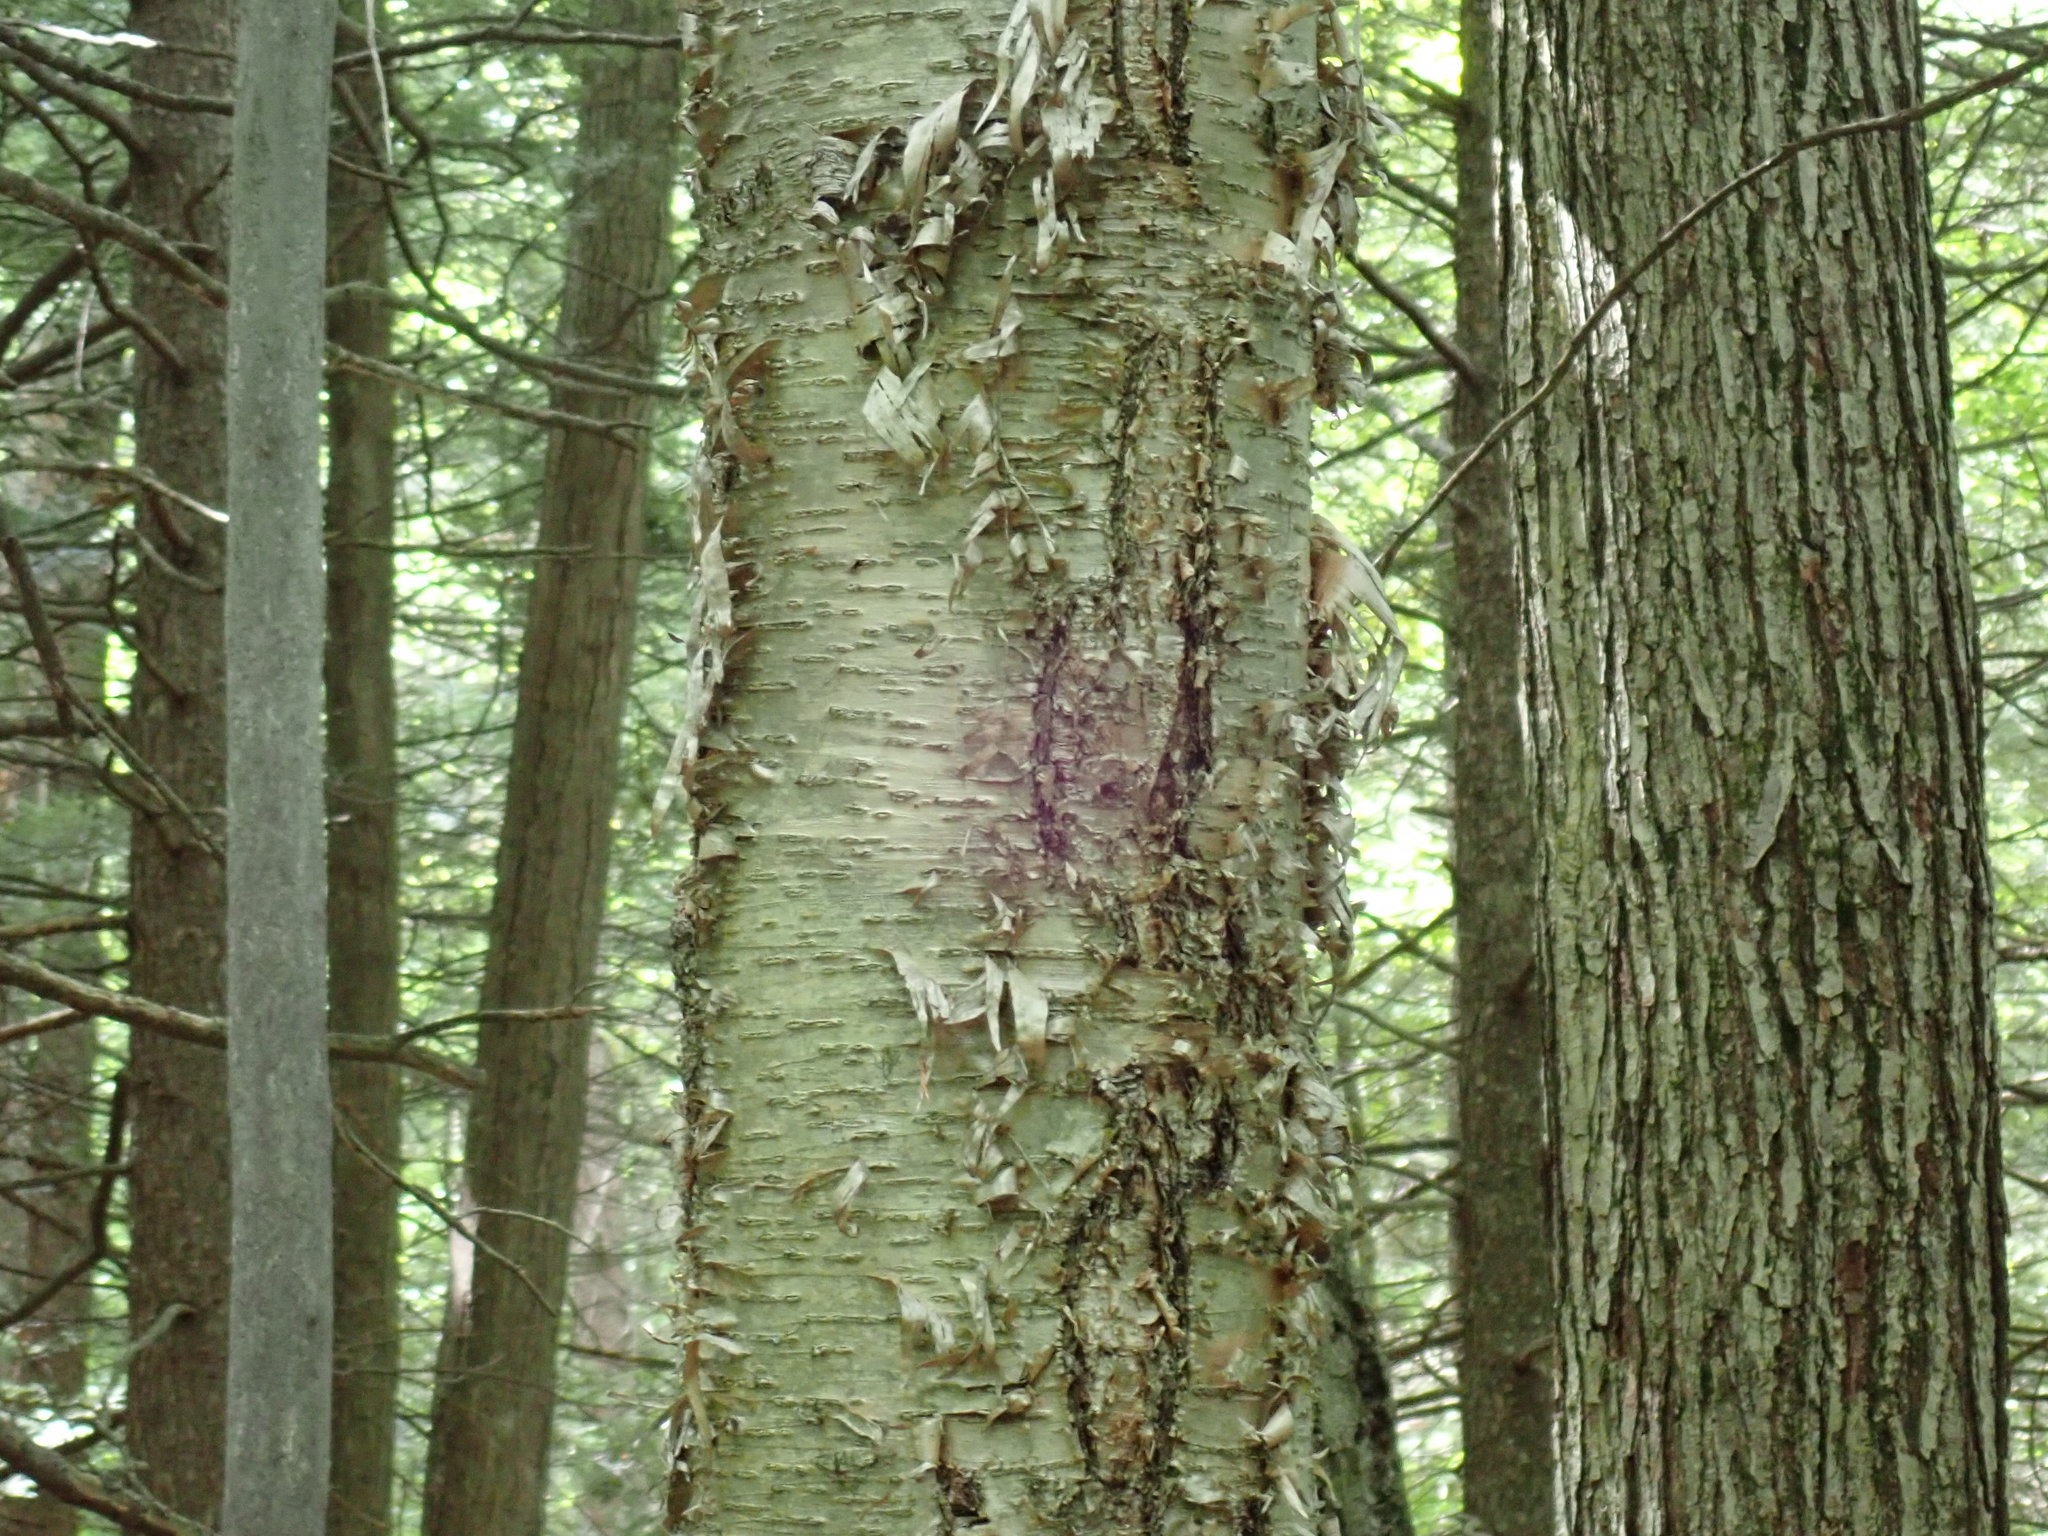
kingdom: Plantae
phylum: Tracheophyta
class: Magnoliopsida
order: Fagales
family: Betulaceae
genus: Betula
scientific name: Betula alleghaniensis
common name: Yellow birch
